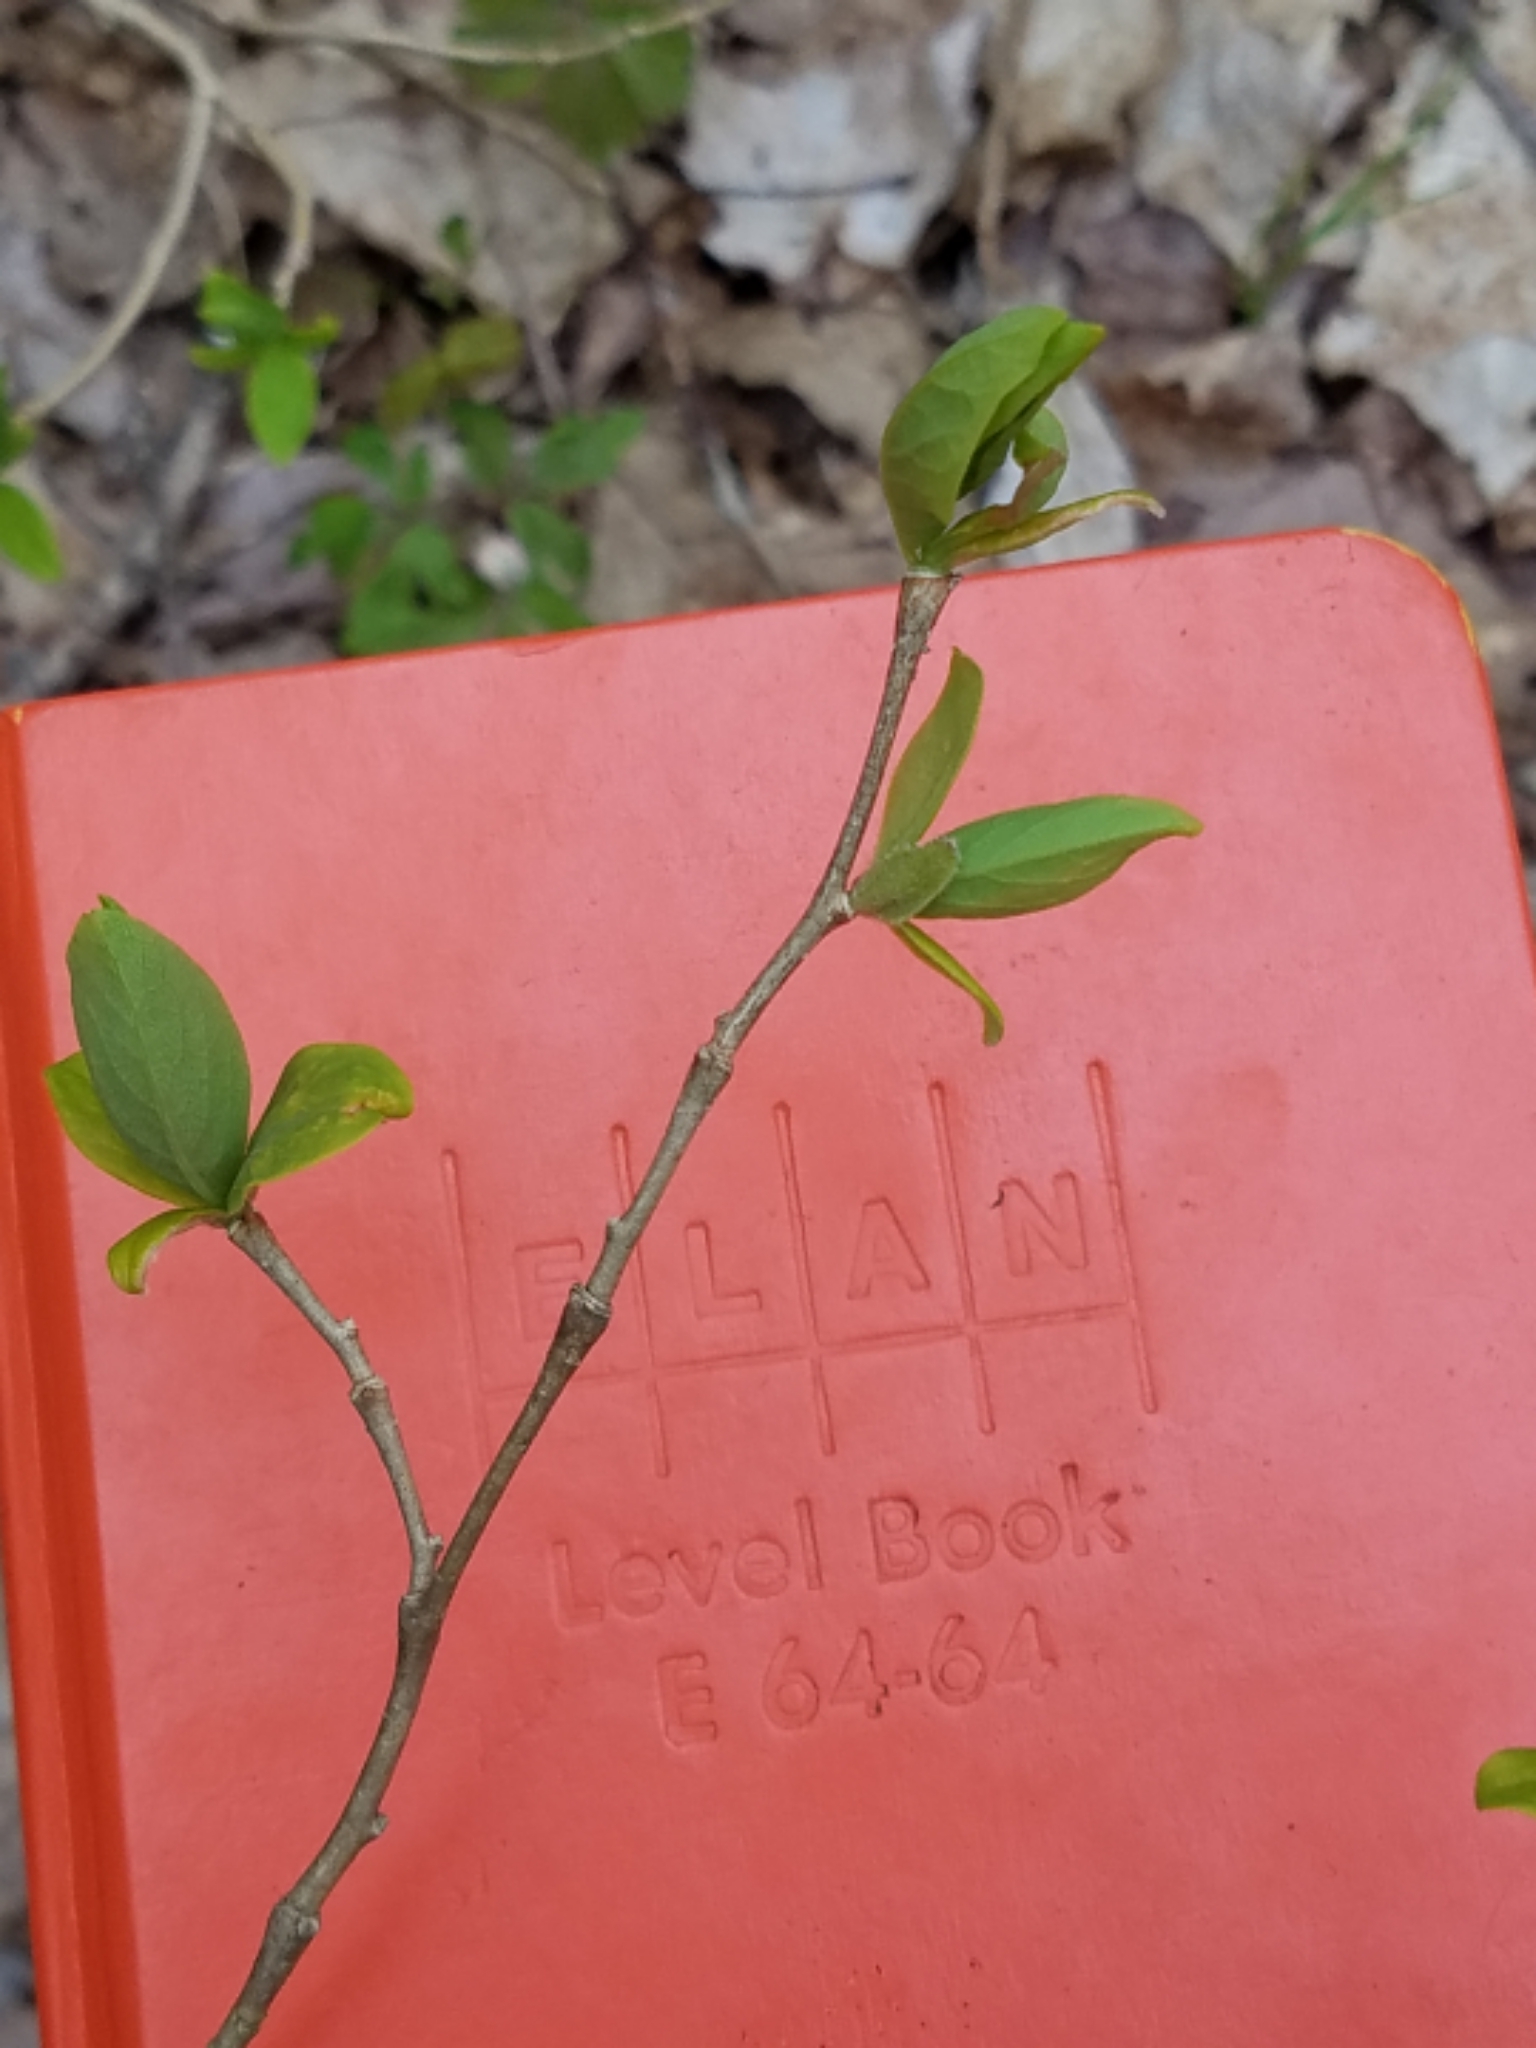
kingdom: Plantae
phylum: Tracheophyta
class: Magnoliopsida
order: Malvales
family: Thymelaeaceae
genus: Dirca
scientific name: Dirca palustris
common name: Leatherwood
